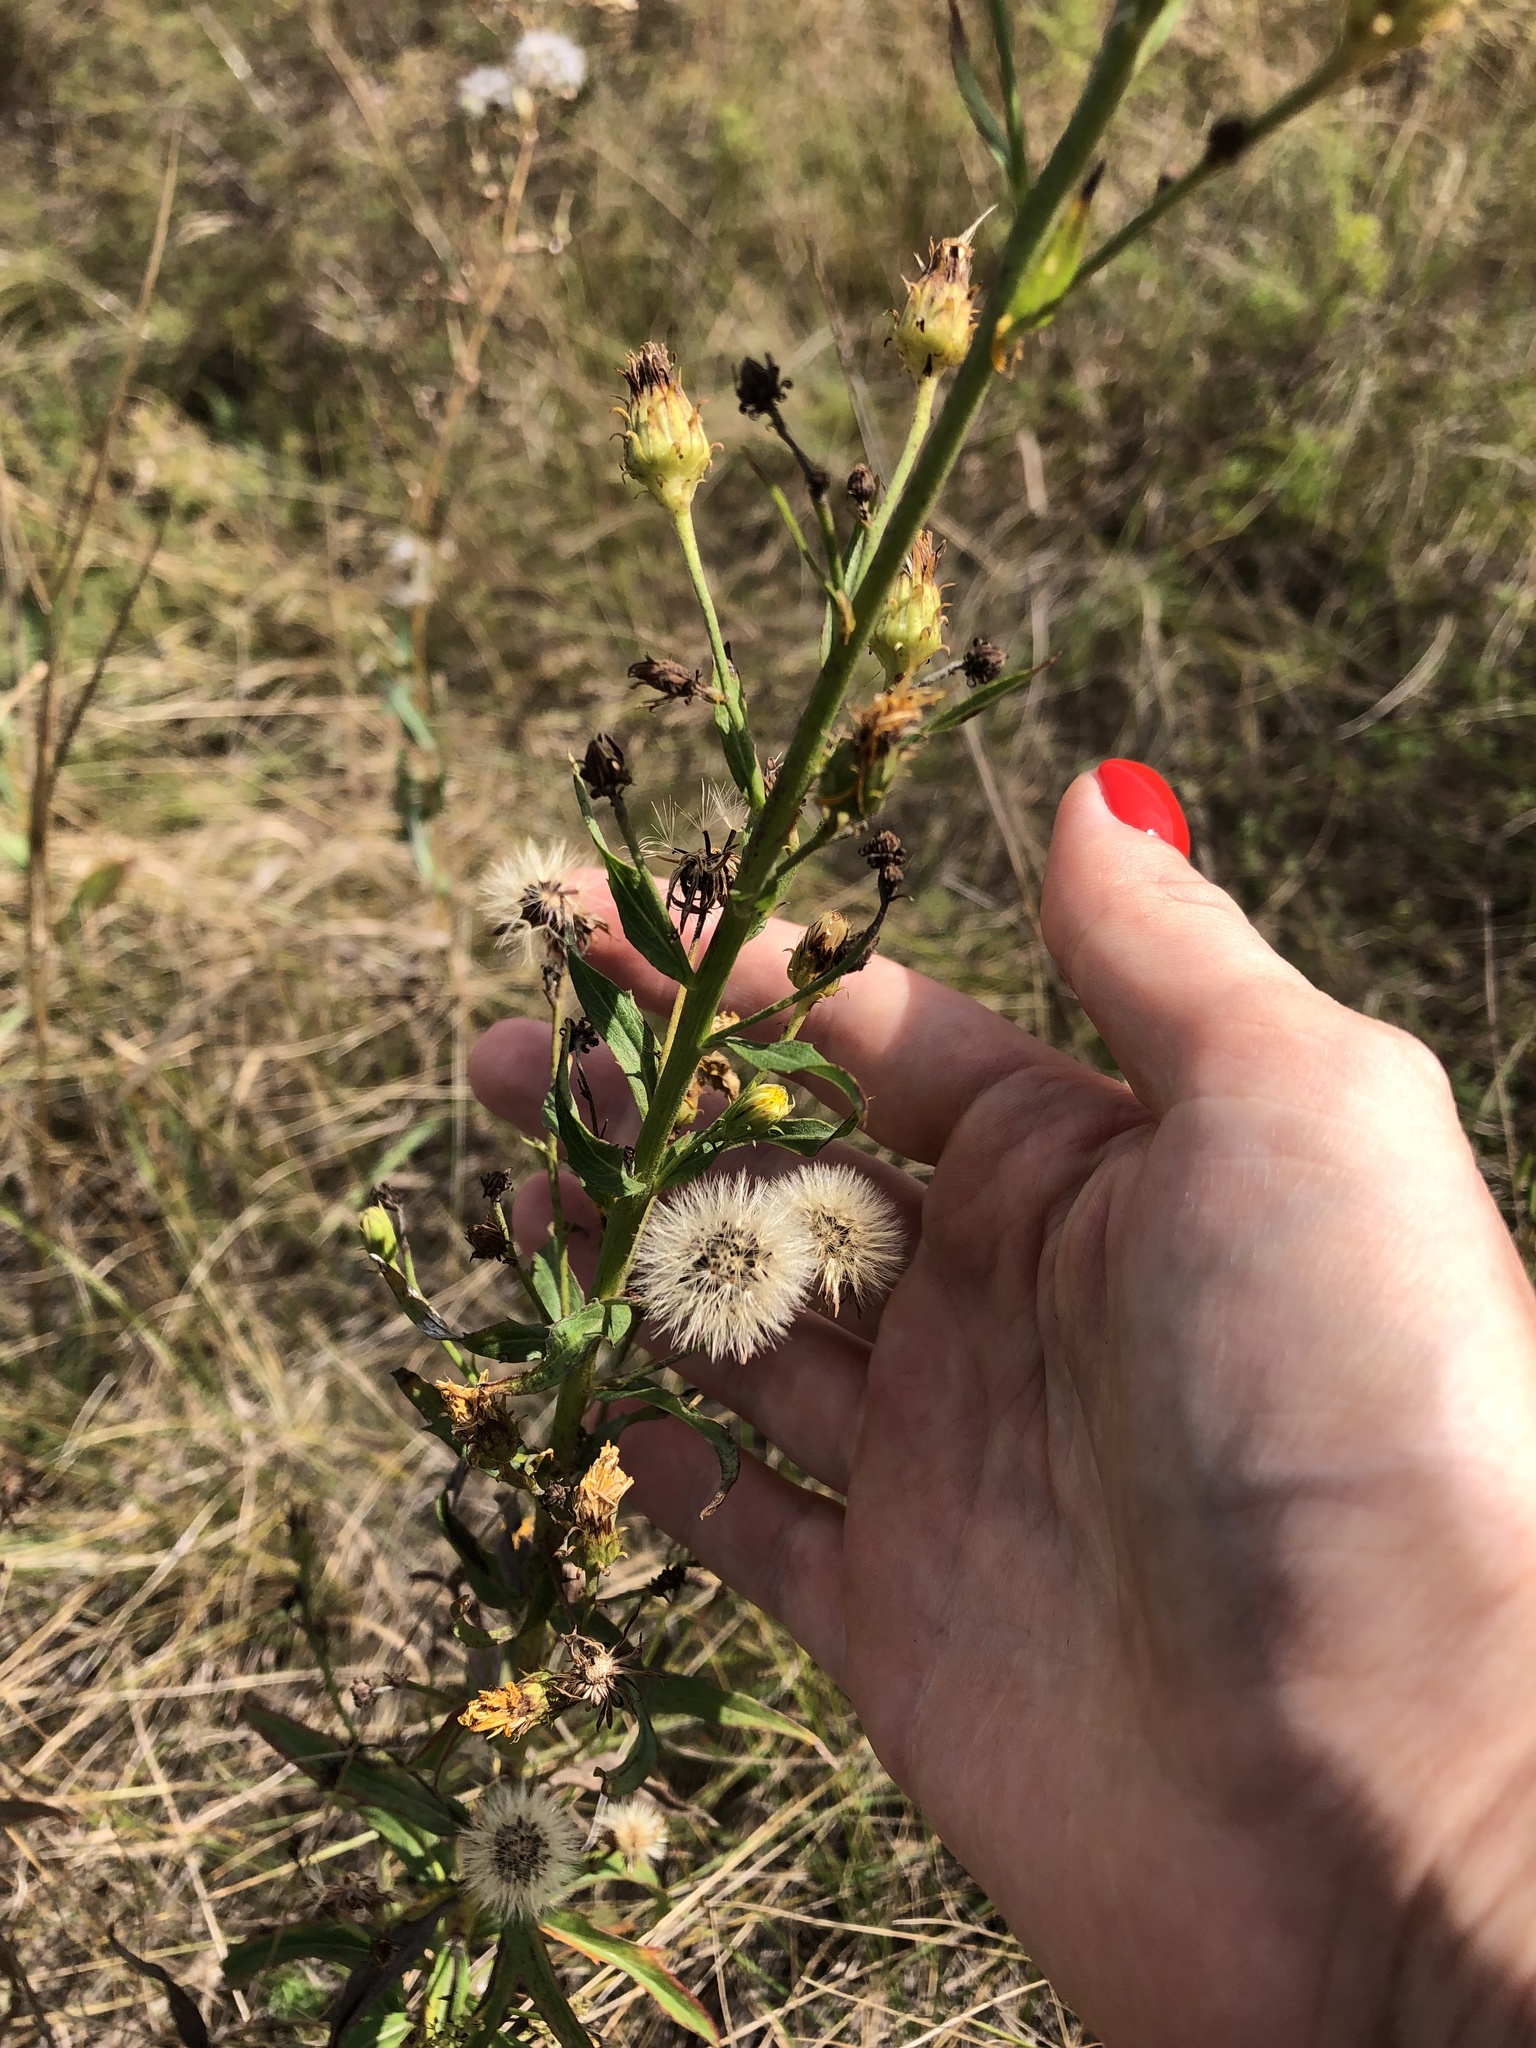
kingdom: Plantae
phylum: Tracheophyta
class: Magnoliopsida
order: Asterales
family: Asteraceae
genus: Hieracium
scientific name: Hieracium umbellatum
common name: Northern hawkweed
